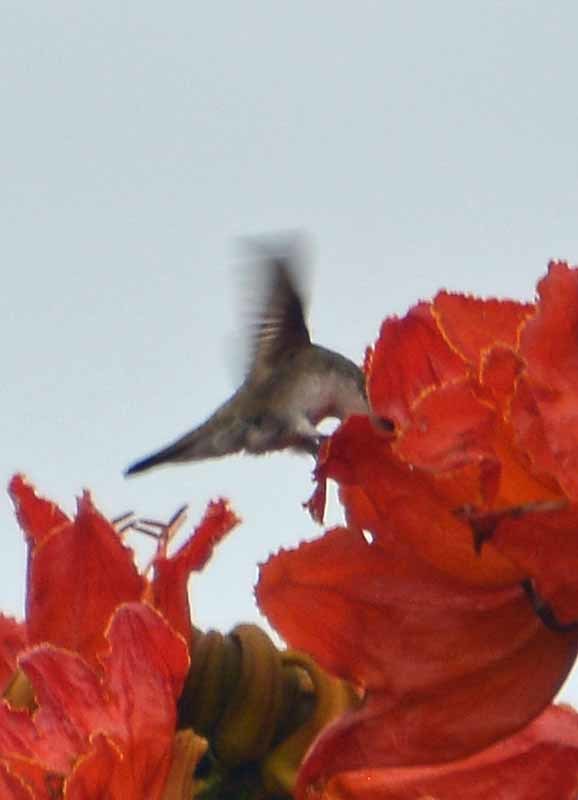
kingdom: Animalia
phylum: Chordata
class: Aves
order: Apodiformes
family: Trochilidae
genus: Leucolia
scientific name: Leucolia violiceps
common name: Violet-crowned hummingbird
